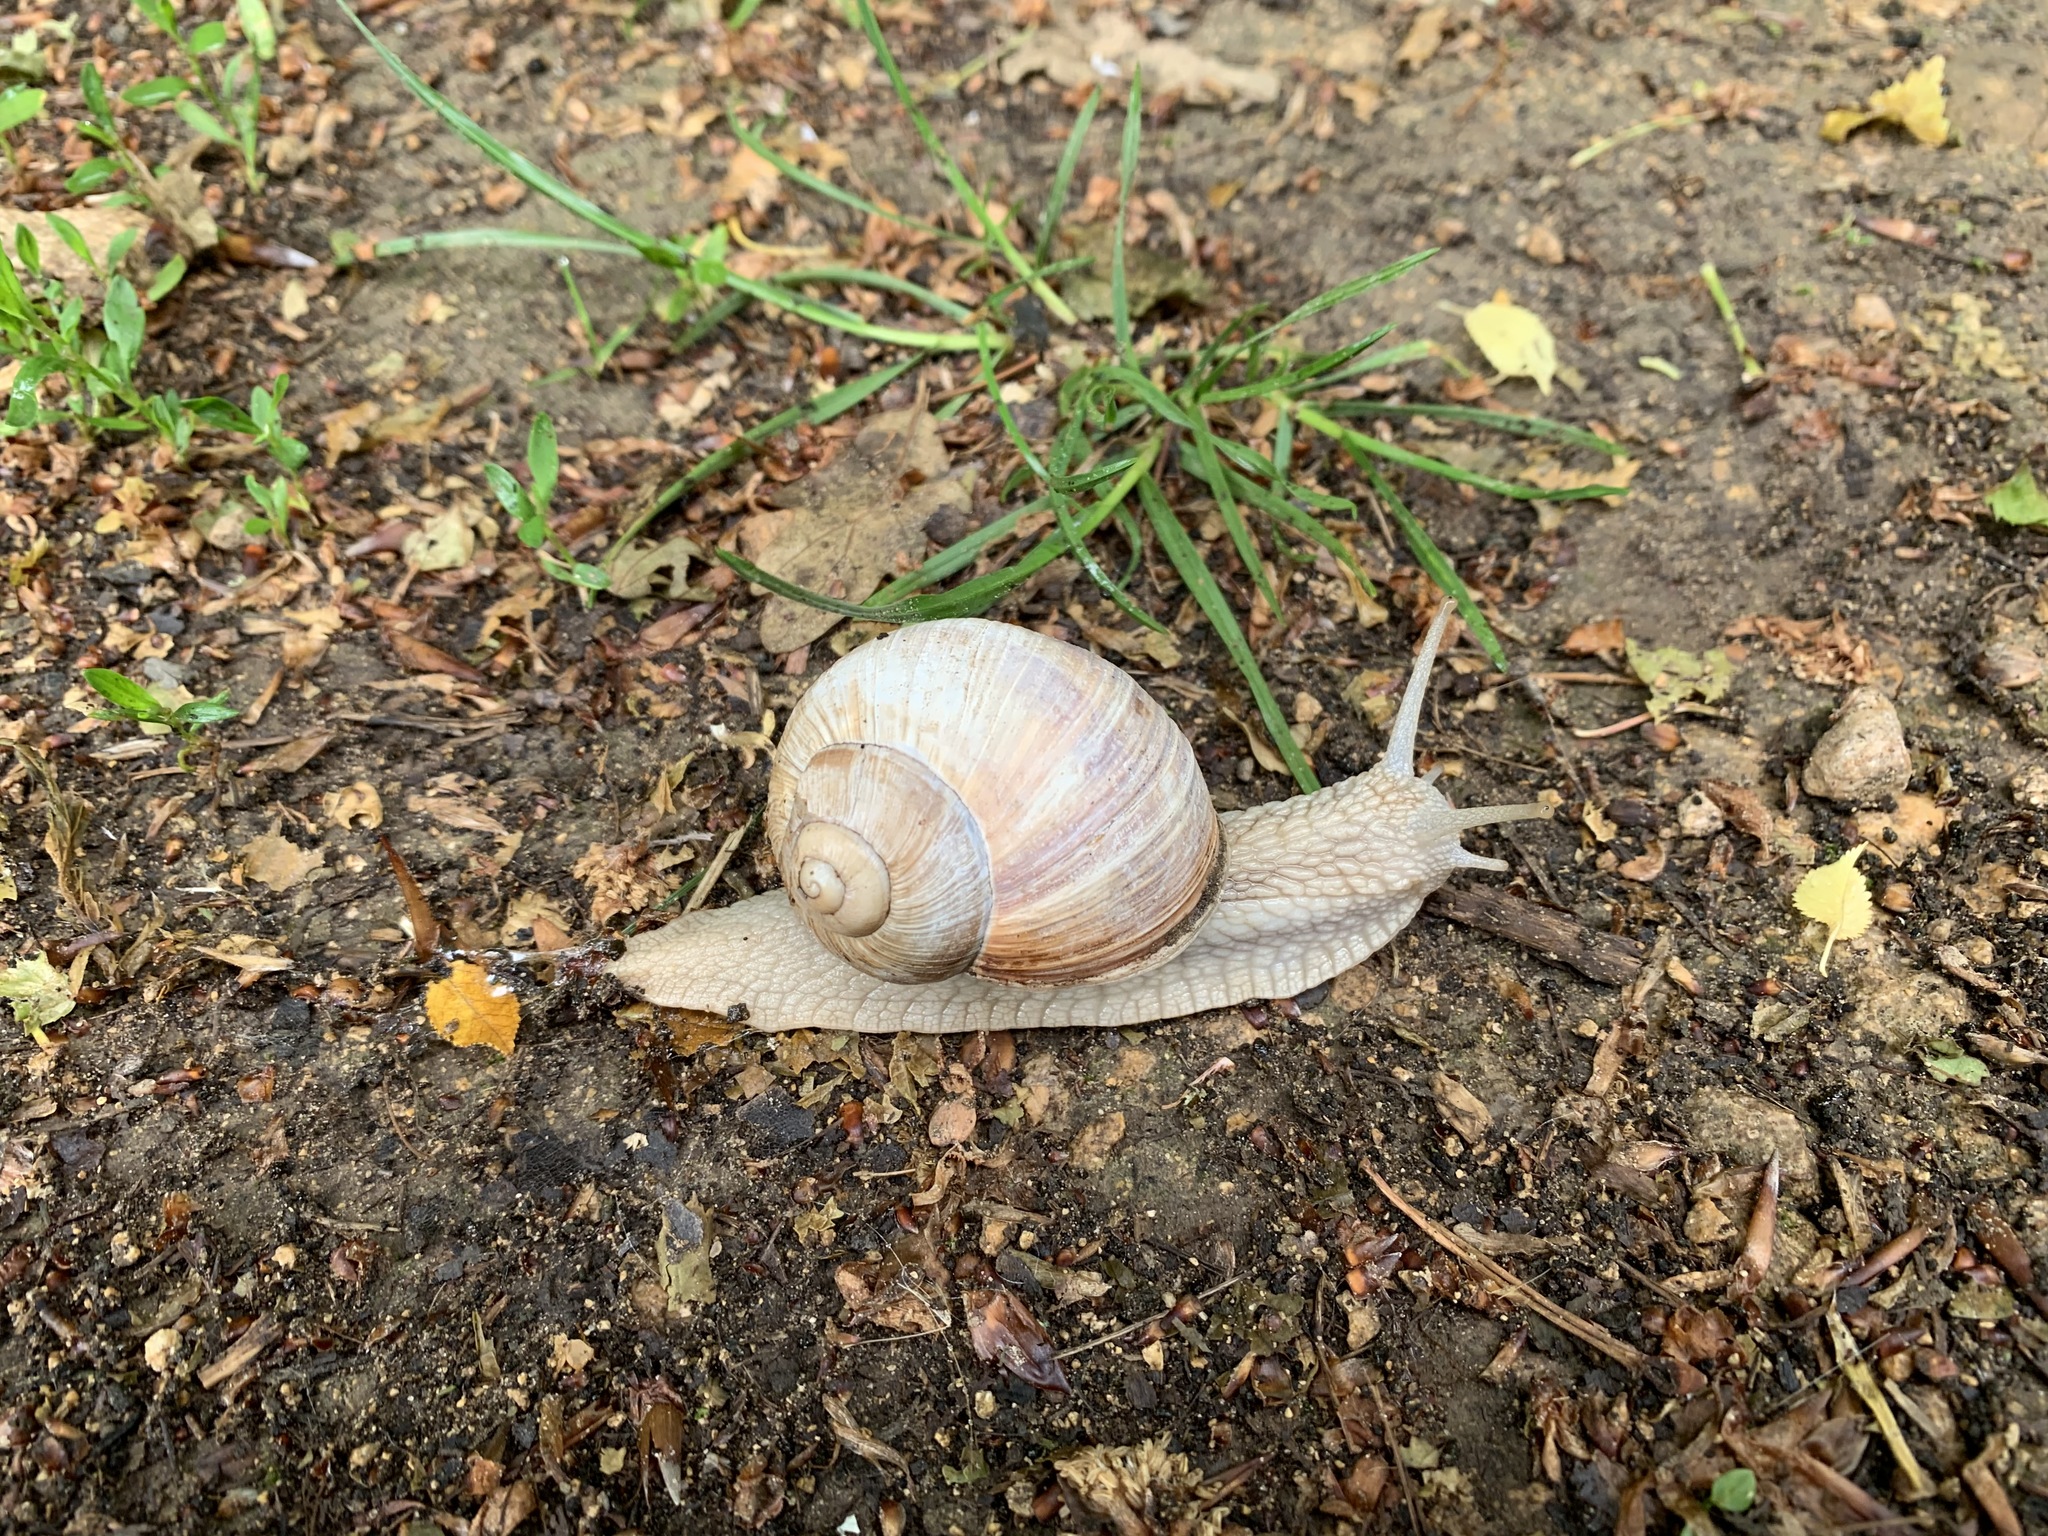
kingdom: Animalia
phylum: Mollusca
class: Gastropoda
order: Stylommatophora
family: Helicidae
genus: Helix
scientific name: Helix pomatia
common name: Roman snail
